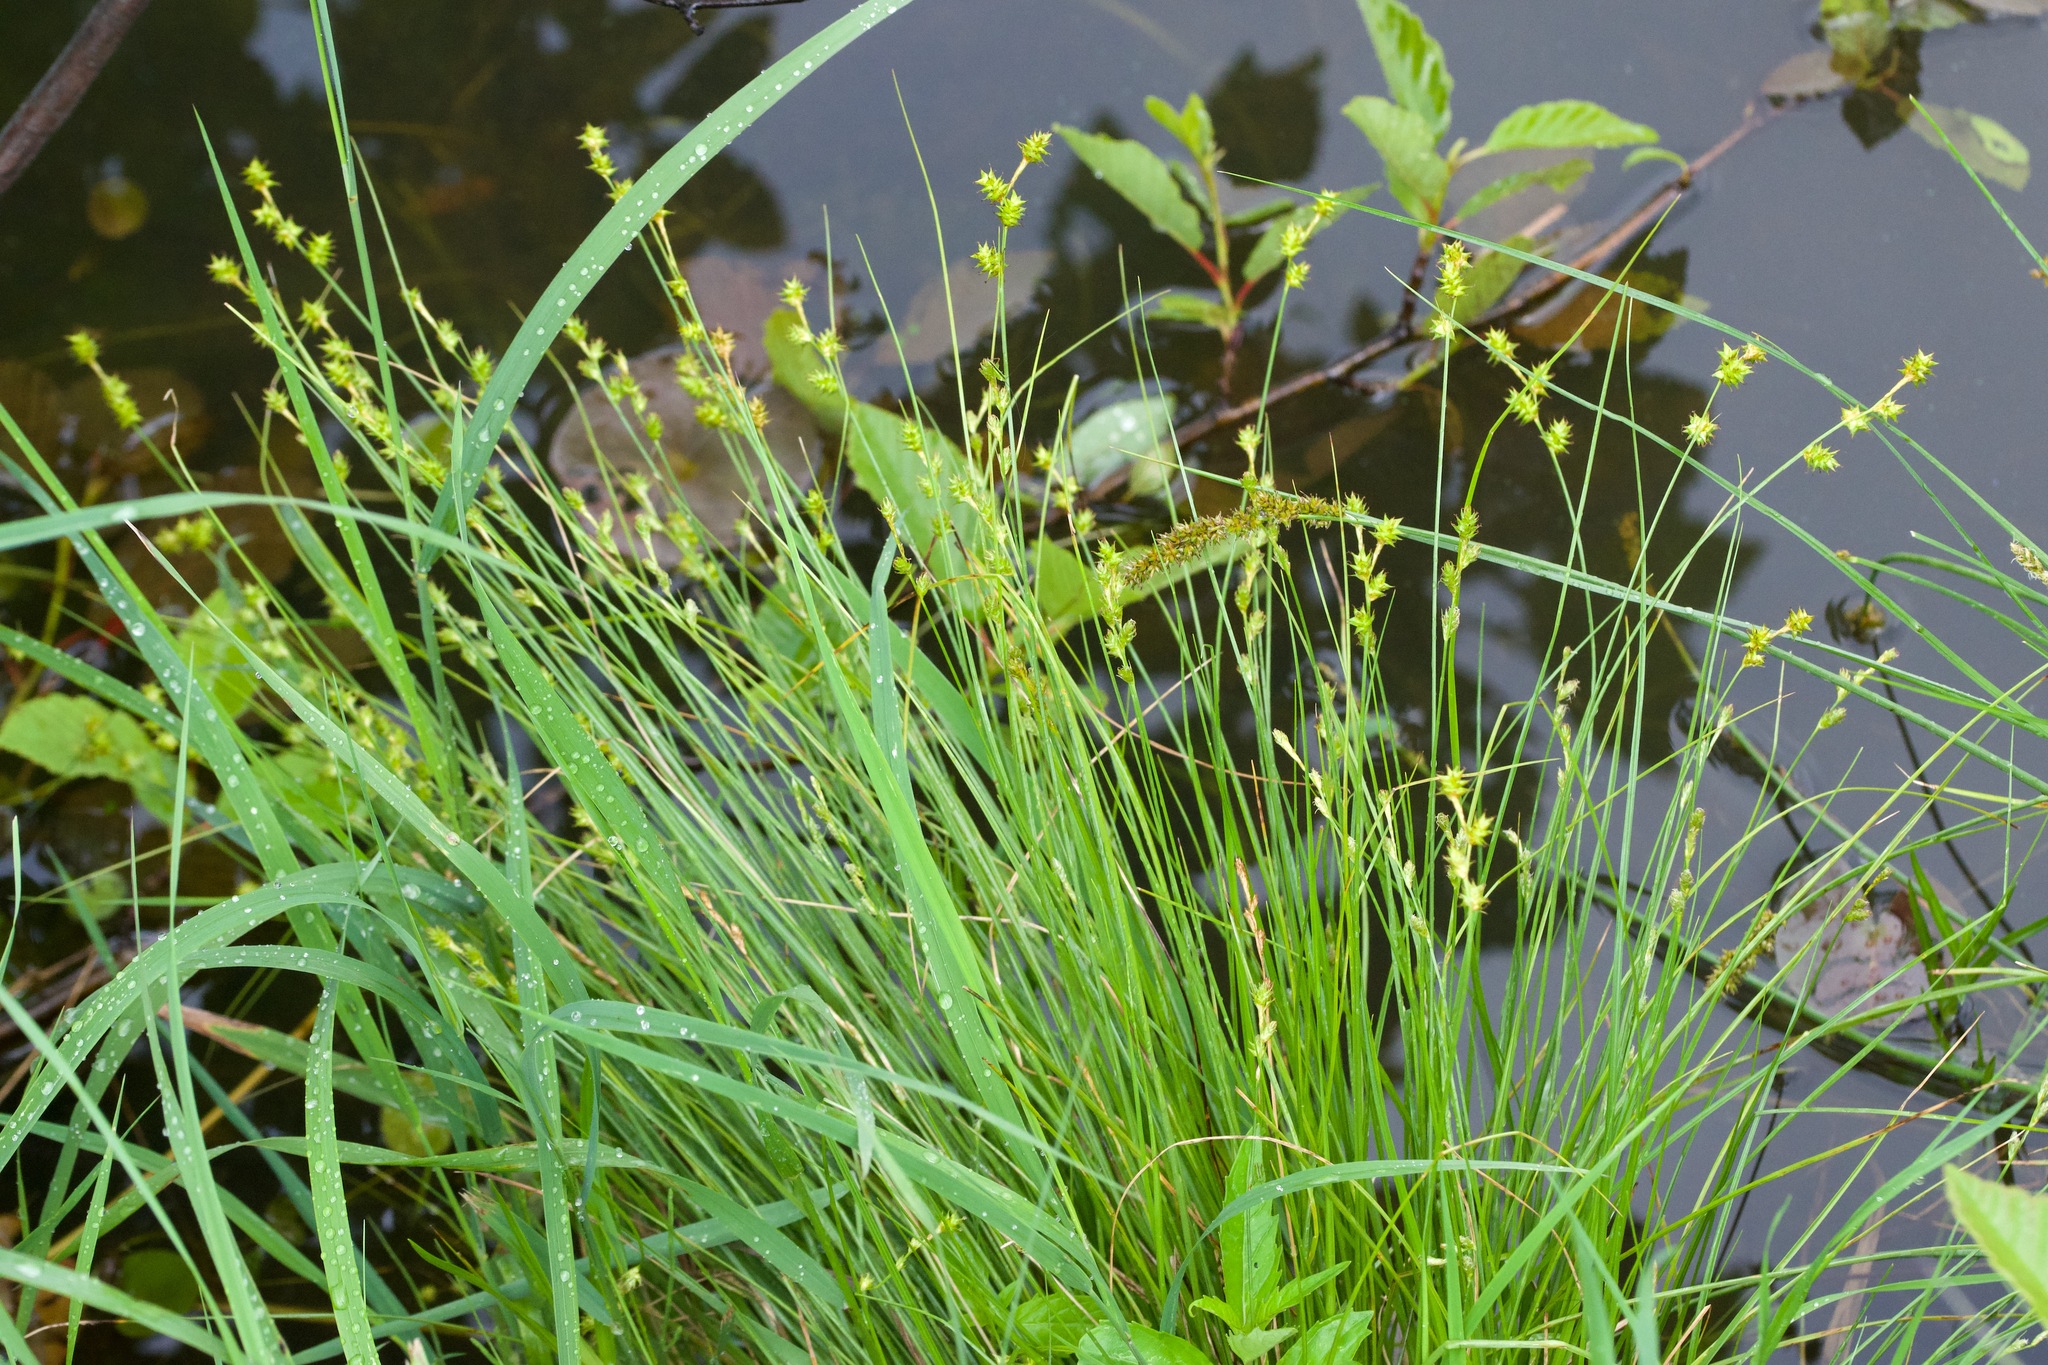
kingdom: Plantae
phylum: Tracheophyta
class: Liliopsida
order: Poales
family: Cyperaceae
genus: Carex
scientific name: Carex interior
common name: Inland sedge
